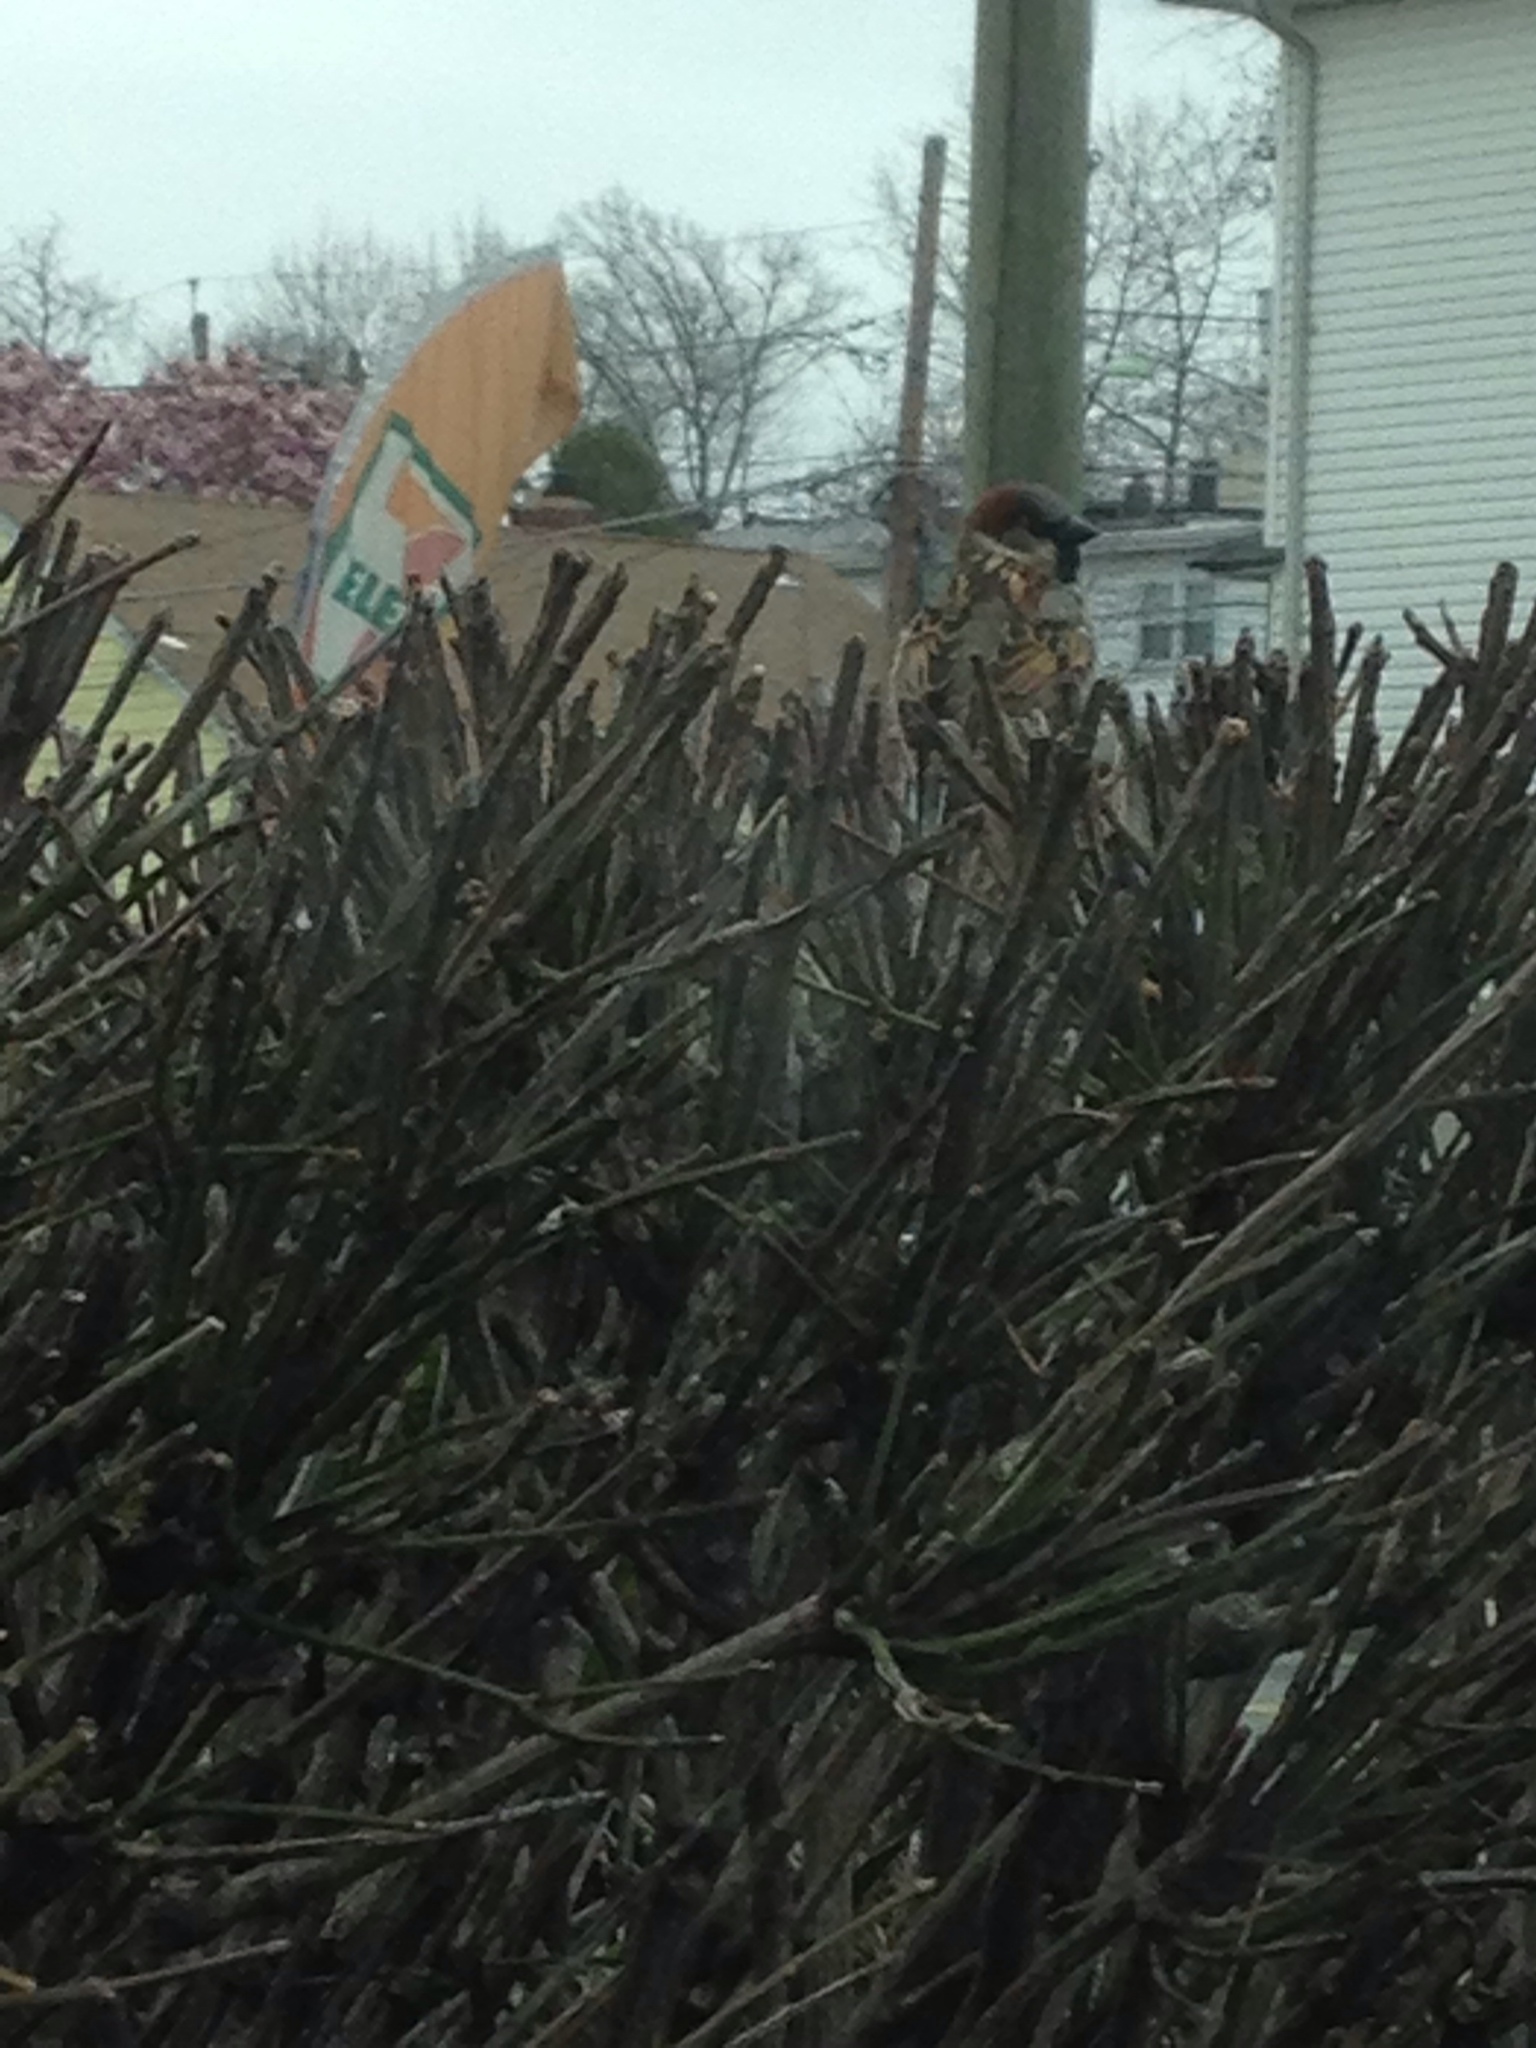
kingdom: Animalia
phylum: Chordata
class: Aves
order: Passeriformes
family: Passeridae
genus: Passer
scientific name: Passer domesticus
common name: House sparrow
